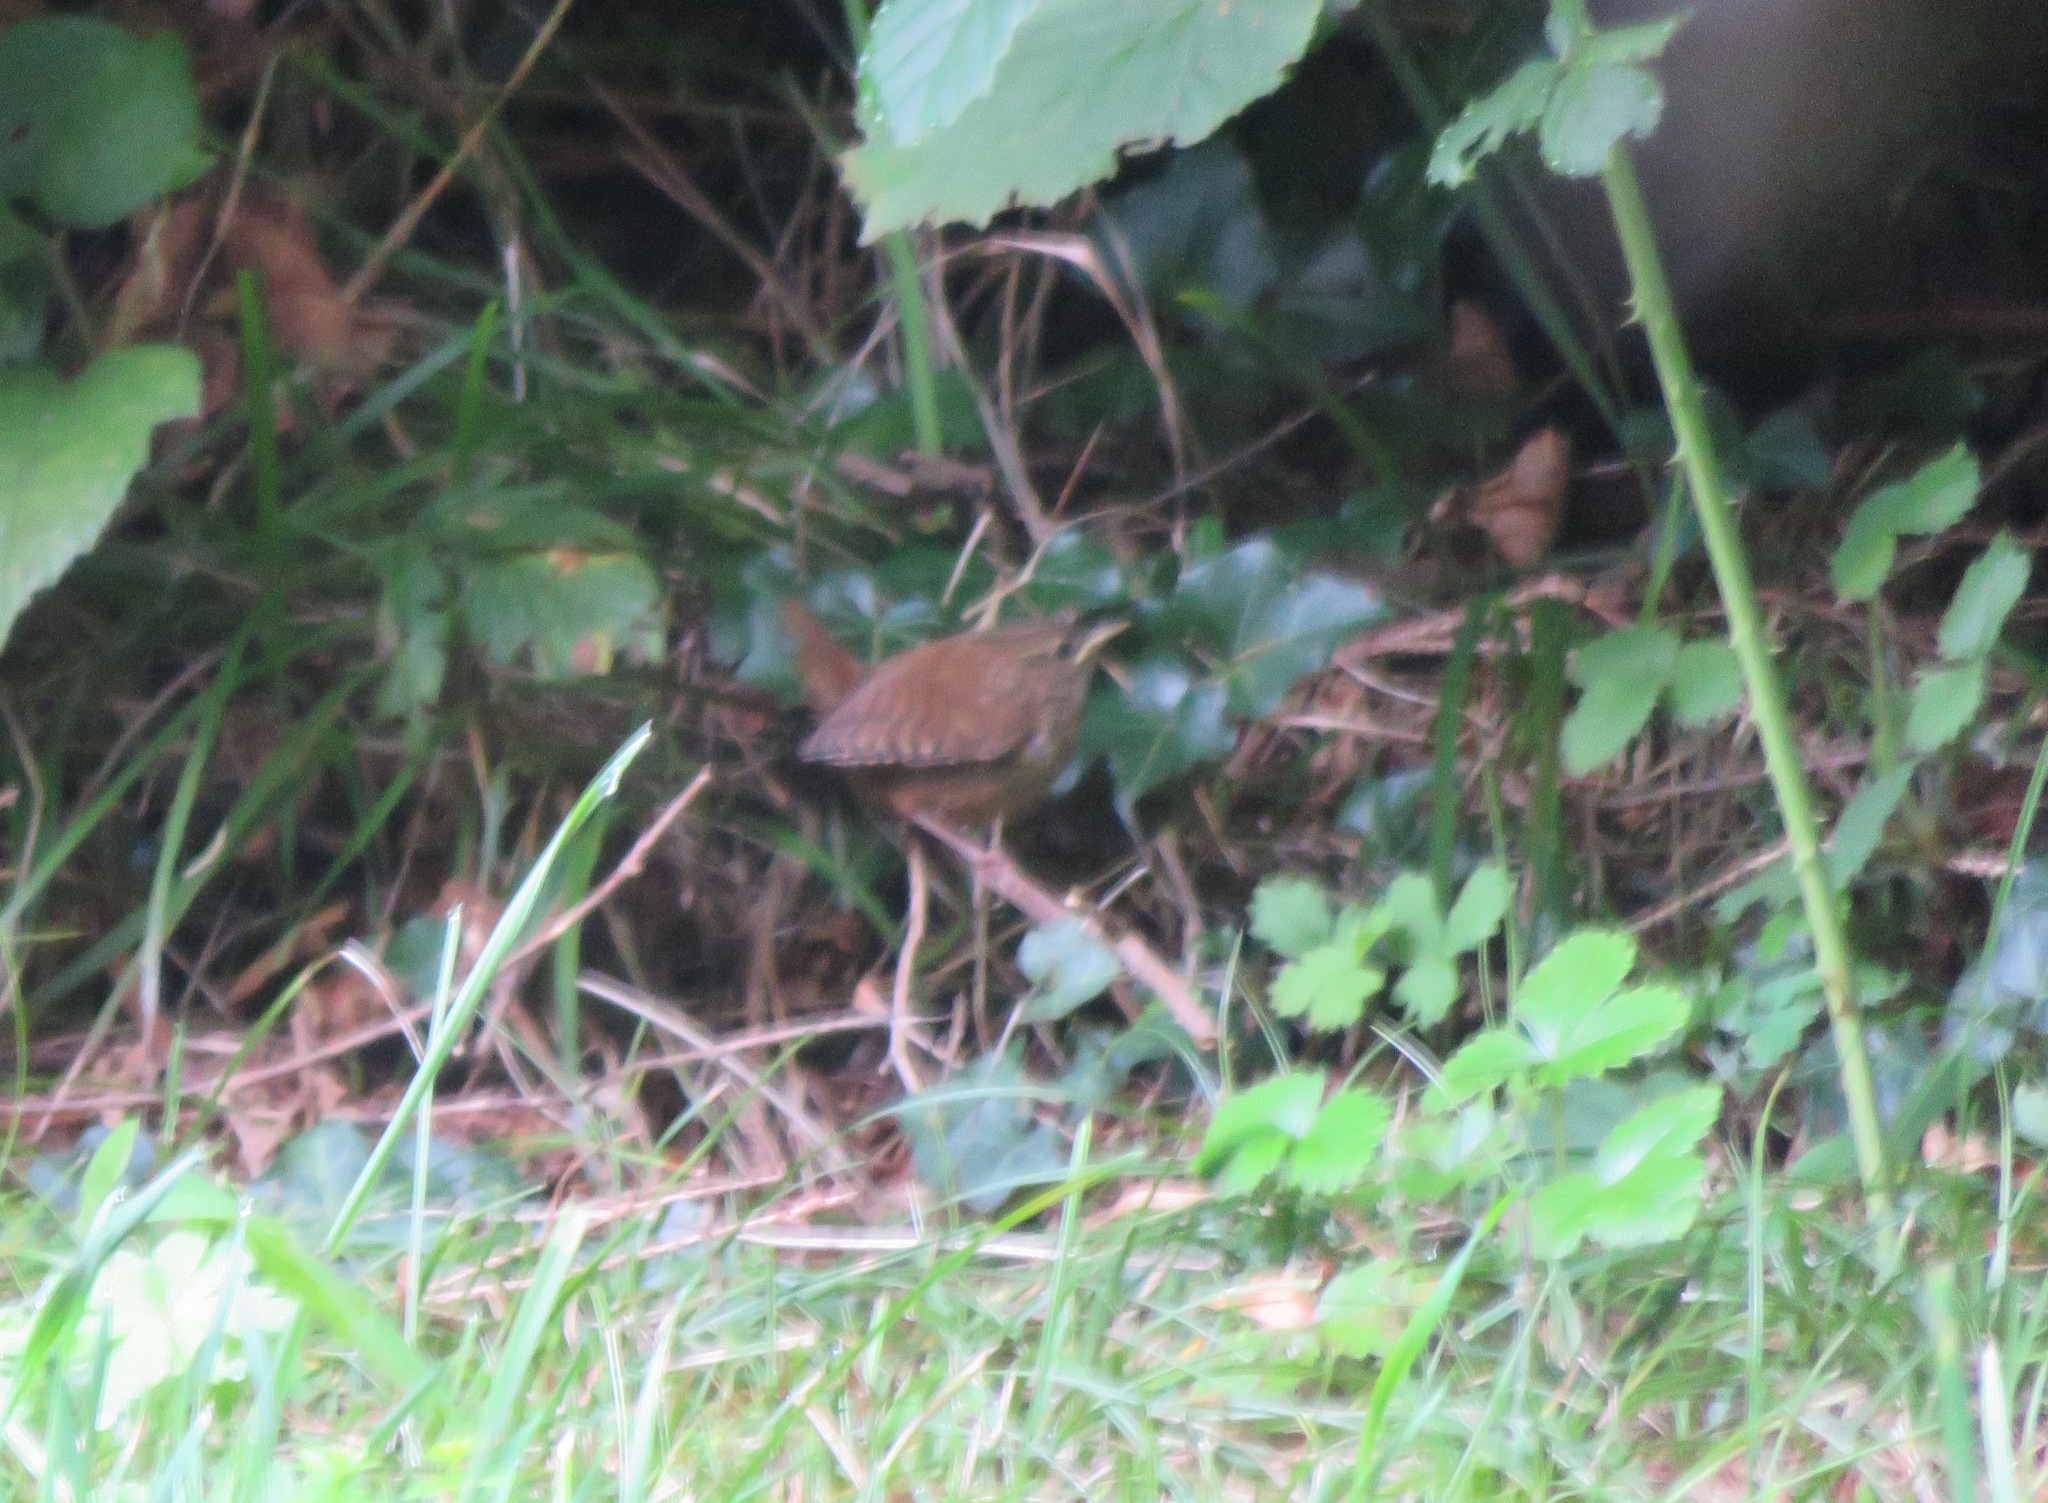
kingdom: Animalia
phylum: Chordata
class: Aves
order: Passeriformes
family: Troglodytidae
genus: Troglodytes
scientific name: Troglodytes troglodytes
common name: Eurasian wren
